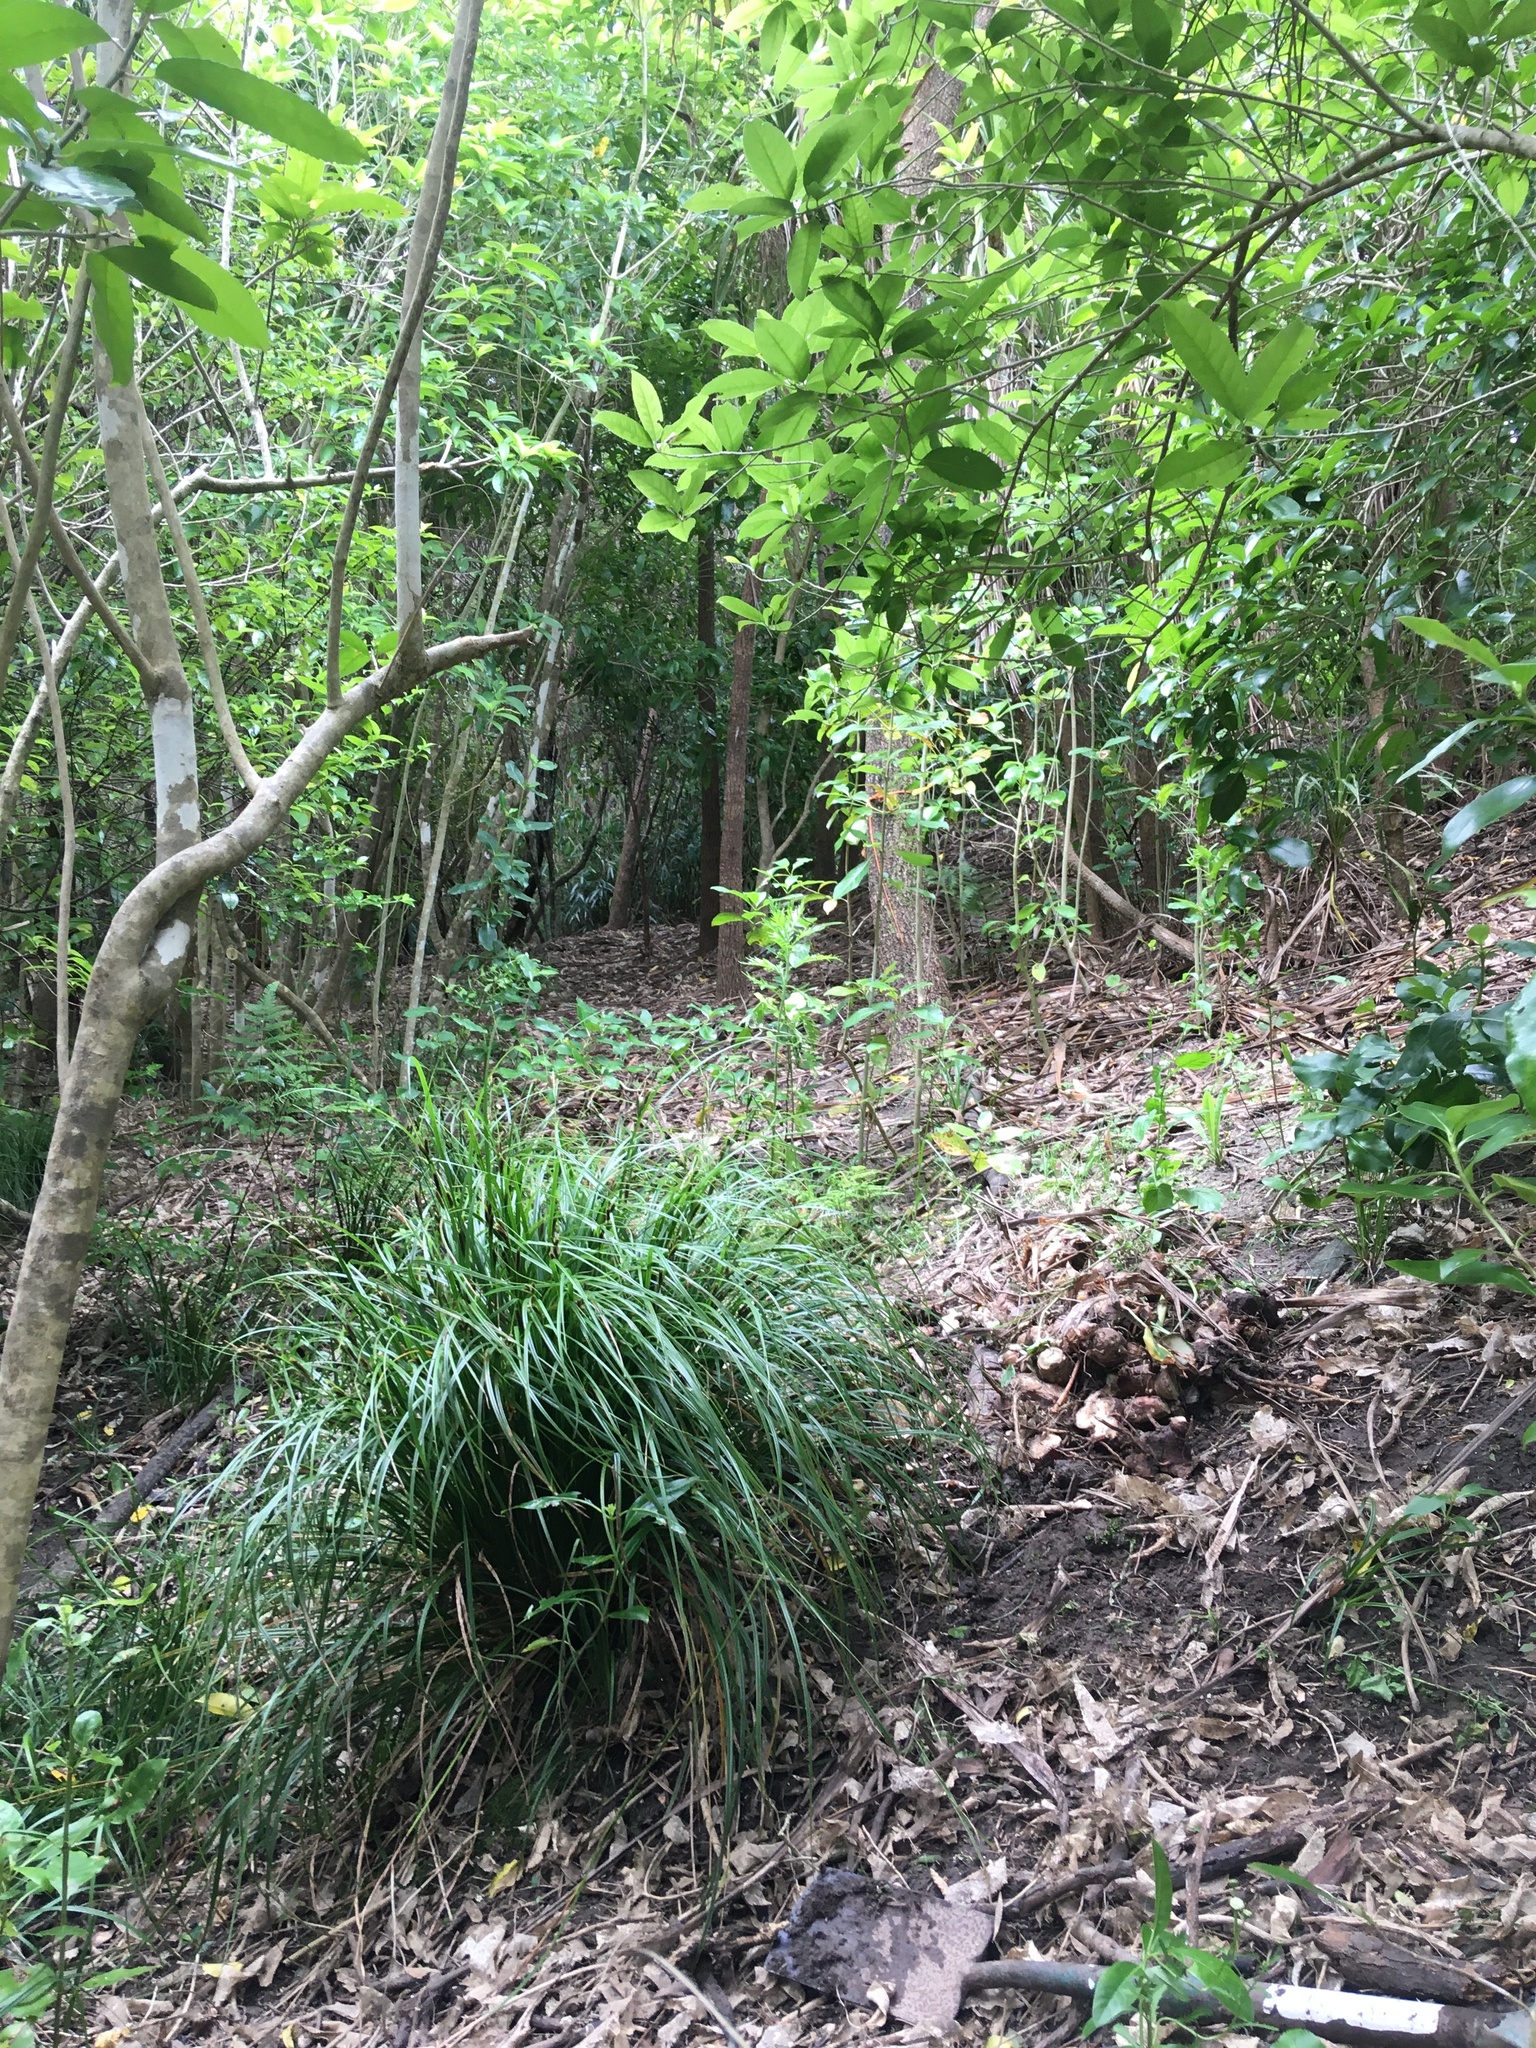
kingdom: Plantae
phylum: Tracheophyta
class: Magnoliopsida
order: Malpighiales
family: Violaceae
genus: Melicytus
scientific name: Melicytus ramiflorus
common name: Mahoe
